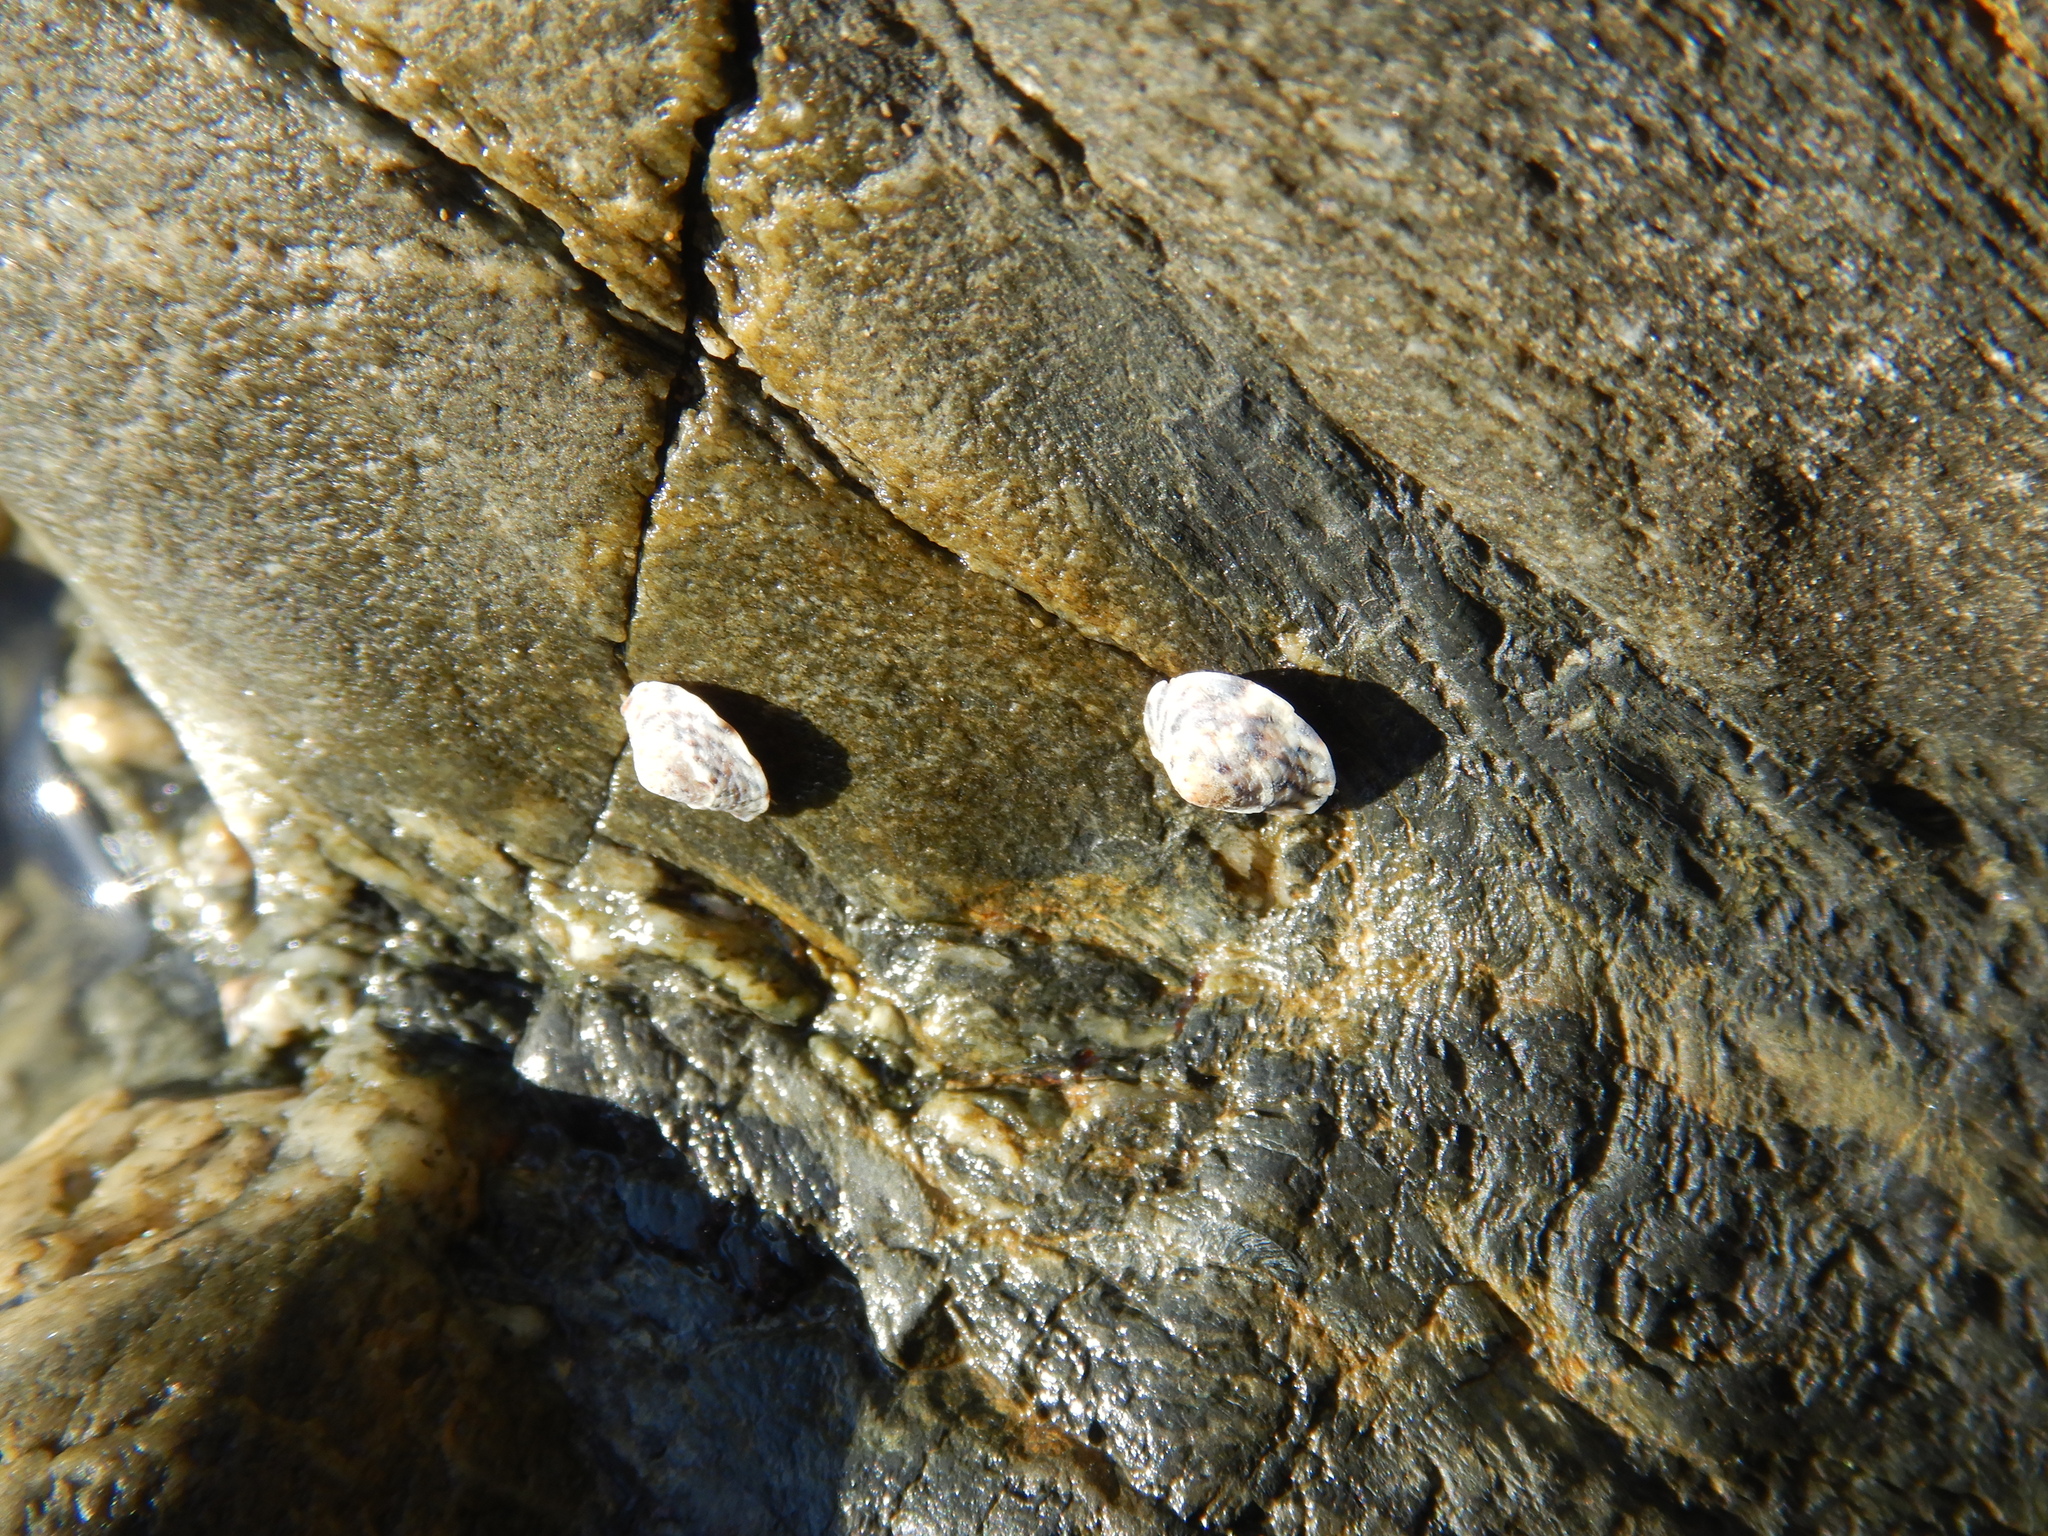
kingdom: Animalia
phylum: Mollusca
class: Gastropoda
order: Littorinimorpha
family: Littorinidae
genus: Bembicium
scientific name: Bembicium nanum
